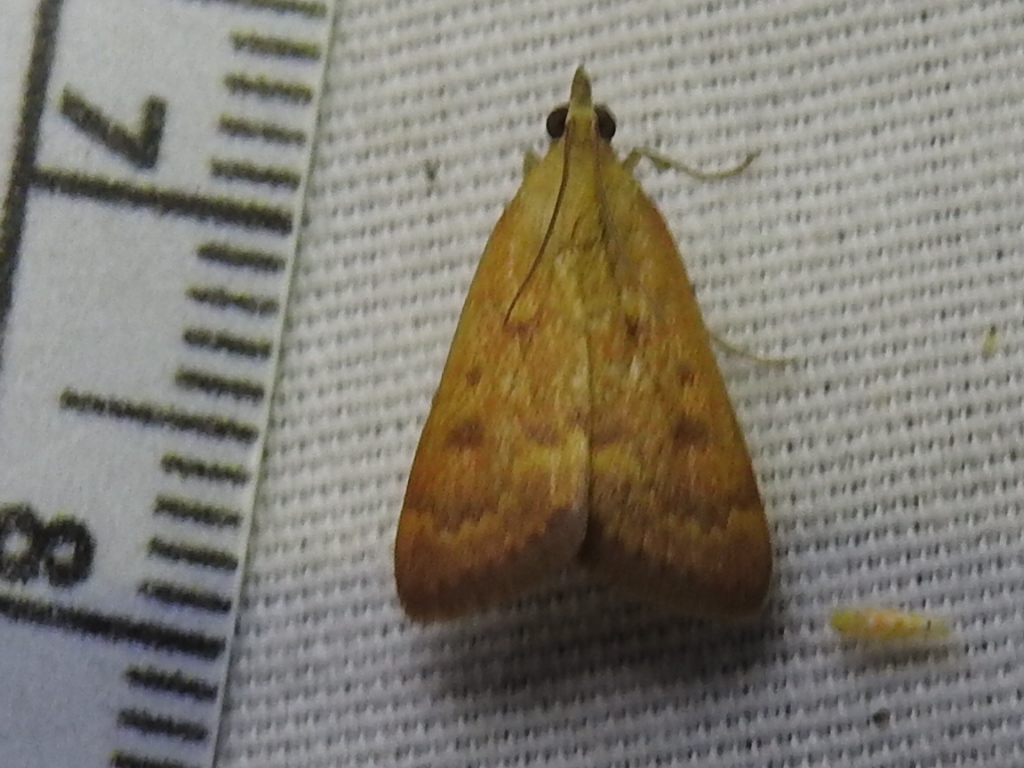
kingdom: Animalia
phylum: Arthropoda
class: Insecta
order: Lepidoptera
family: Crambidae
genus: Achyra
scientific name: Achyra rantalis
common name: Garden webworm
